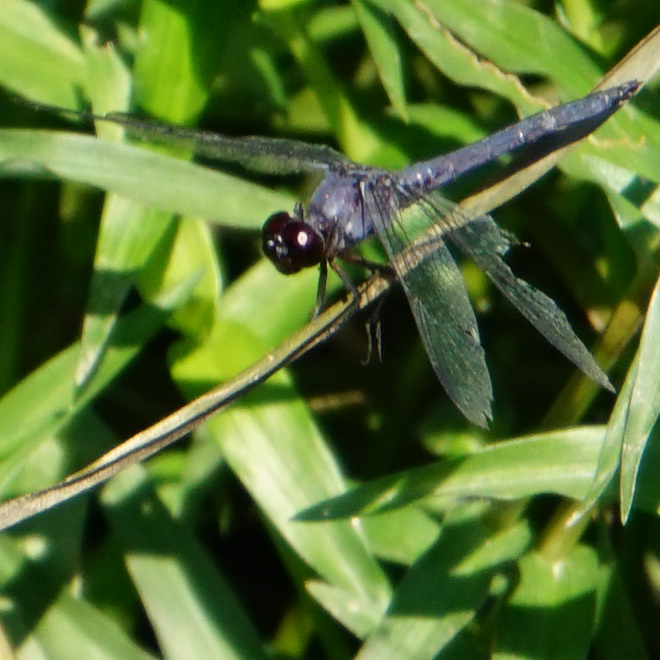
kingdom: Animalia
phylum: Arthropoda
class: Insecta
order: Odonata
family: Libellulidae
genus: Libellula
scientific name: Libellula incesta
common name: Slaty skimmer
